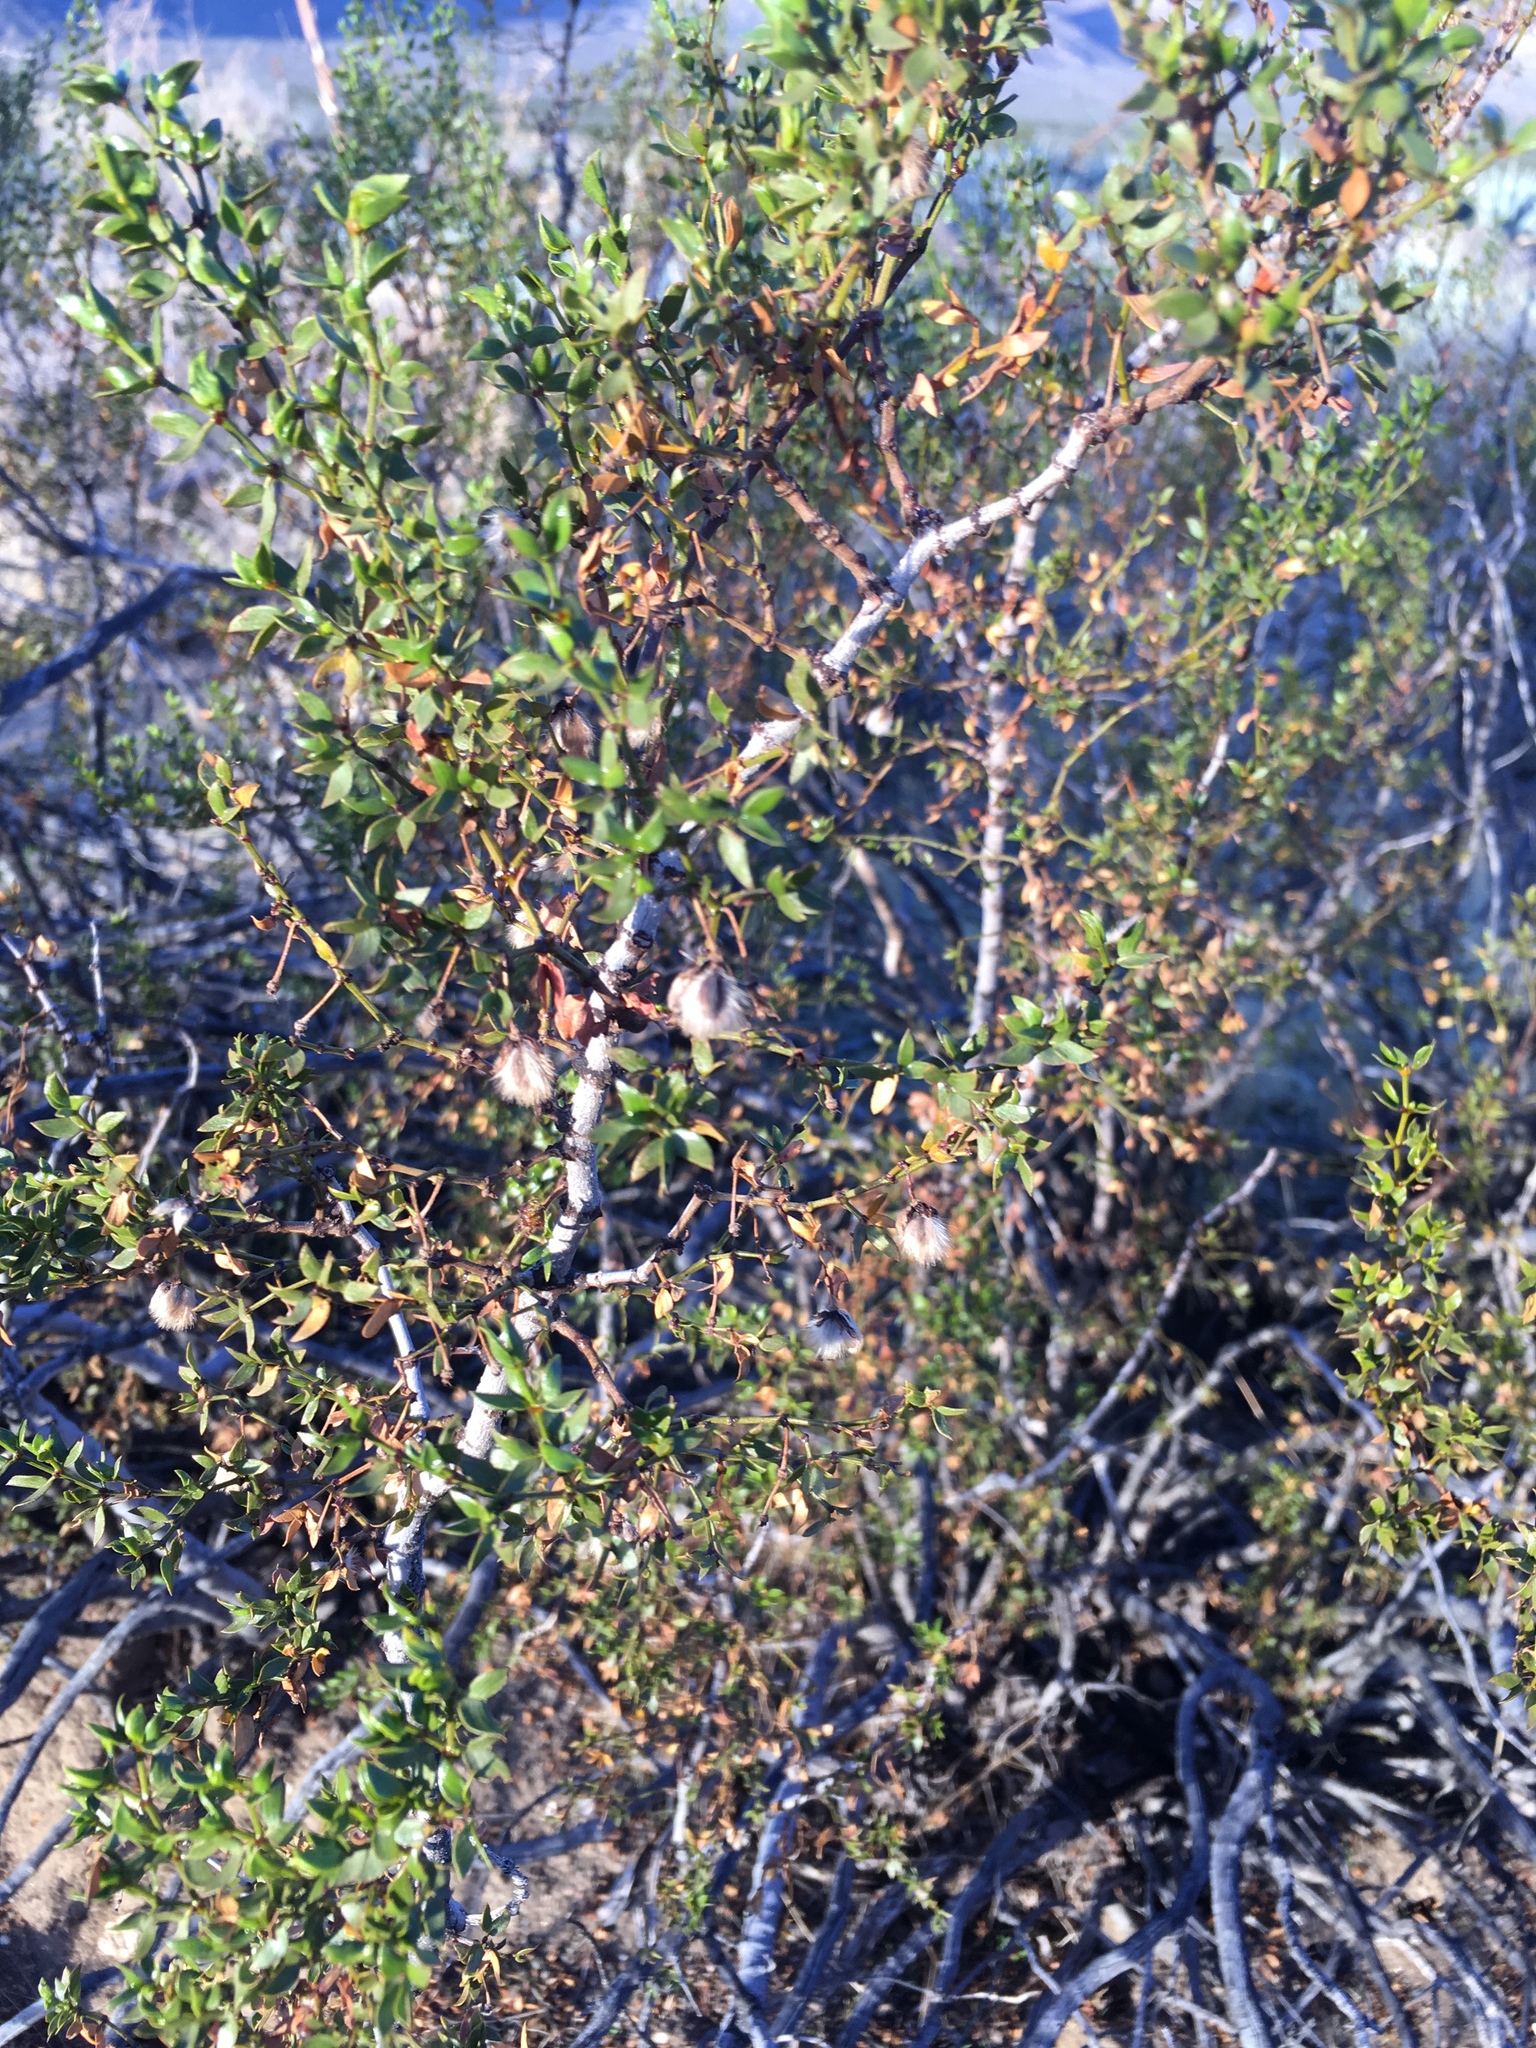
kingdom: Plantae
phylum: Tracheophyta
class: Magnoliopsida
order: Zygophyllales
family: Zygophyllaceae
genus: Larrea
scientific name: Larrea tridentata
